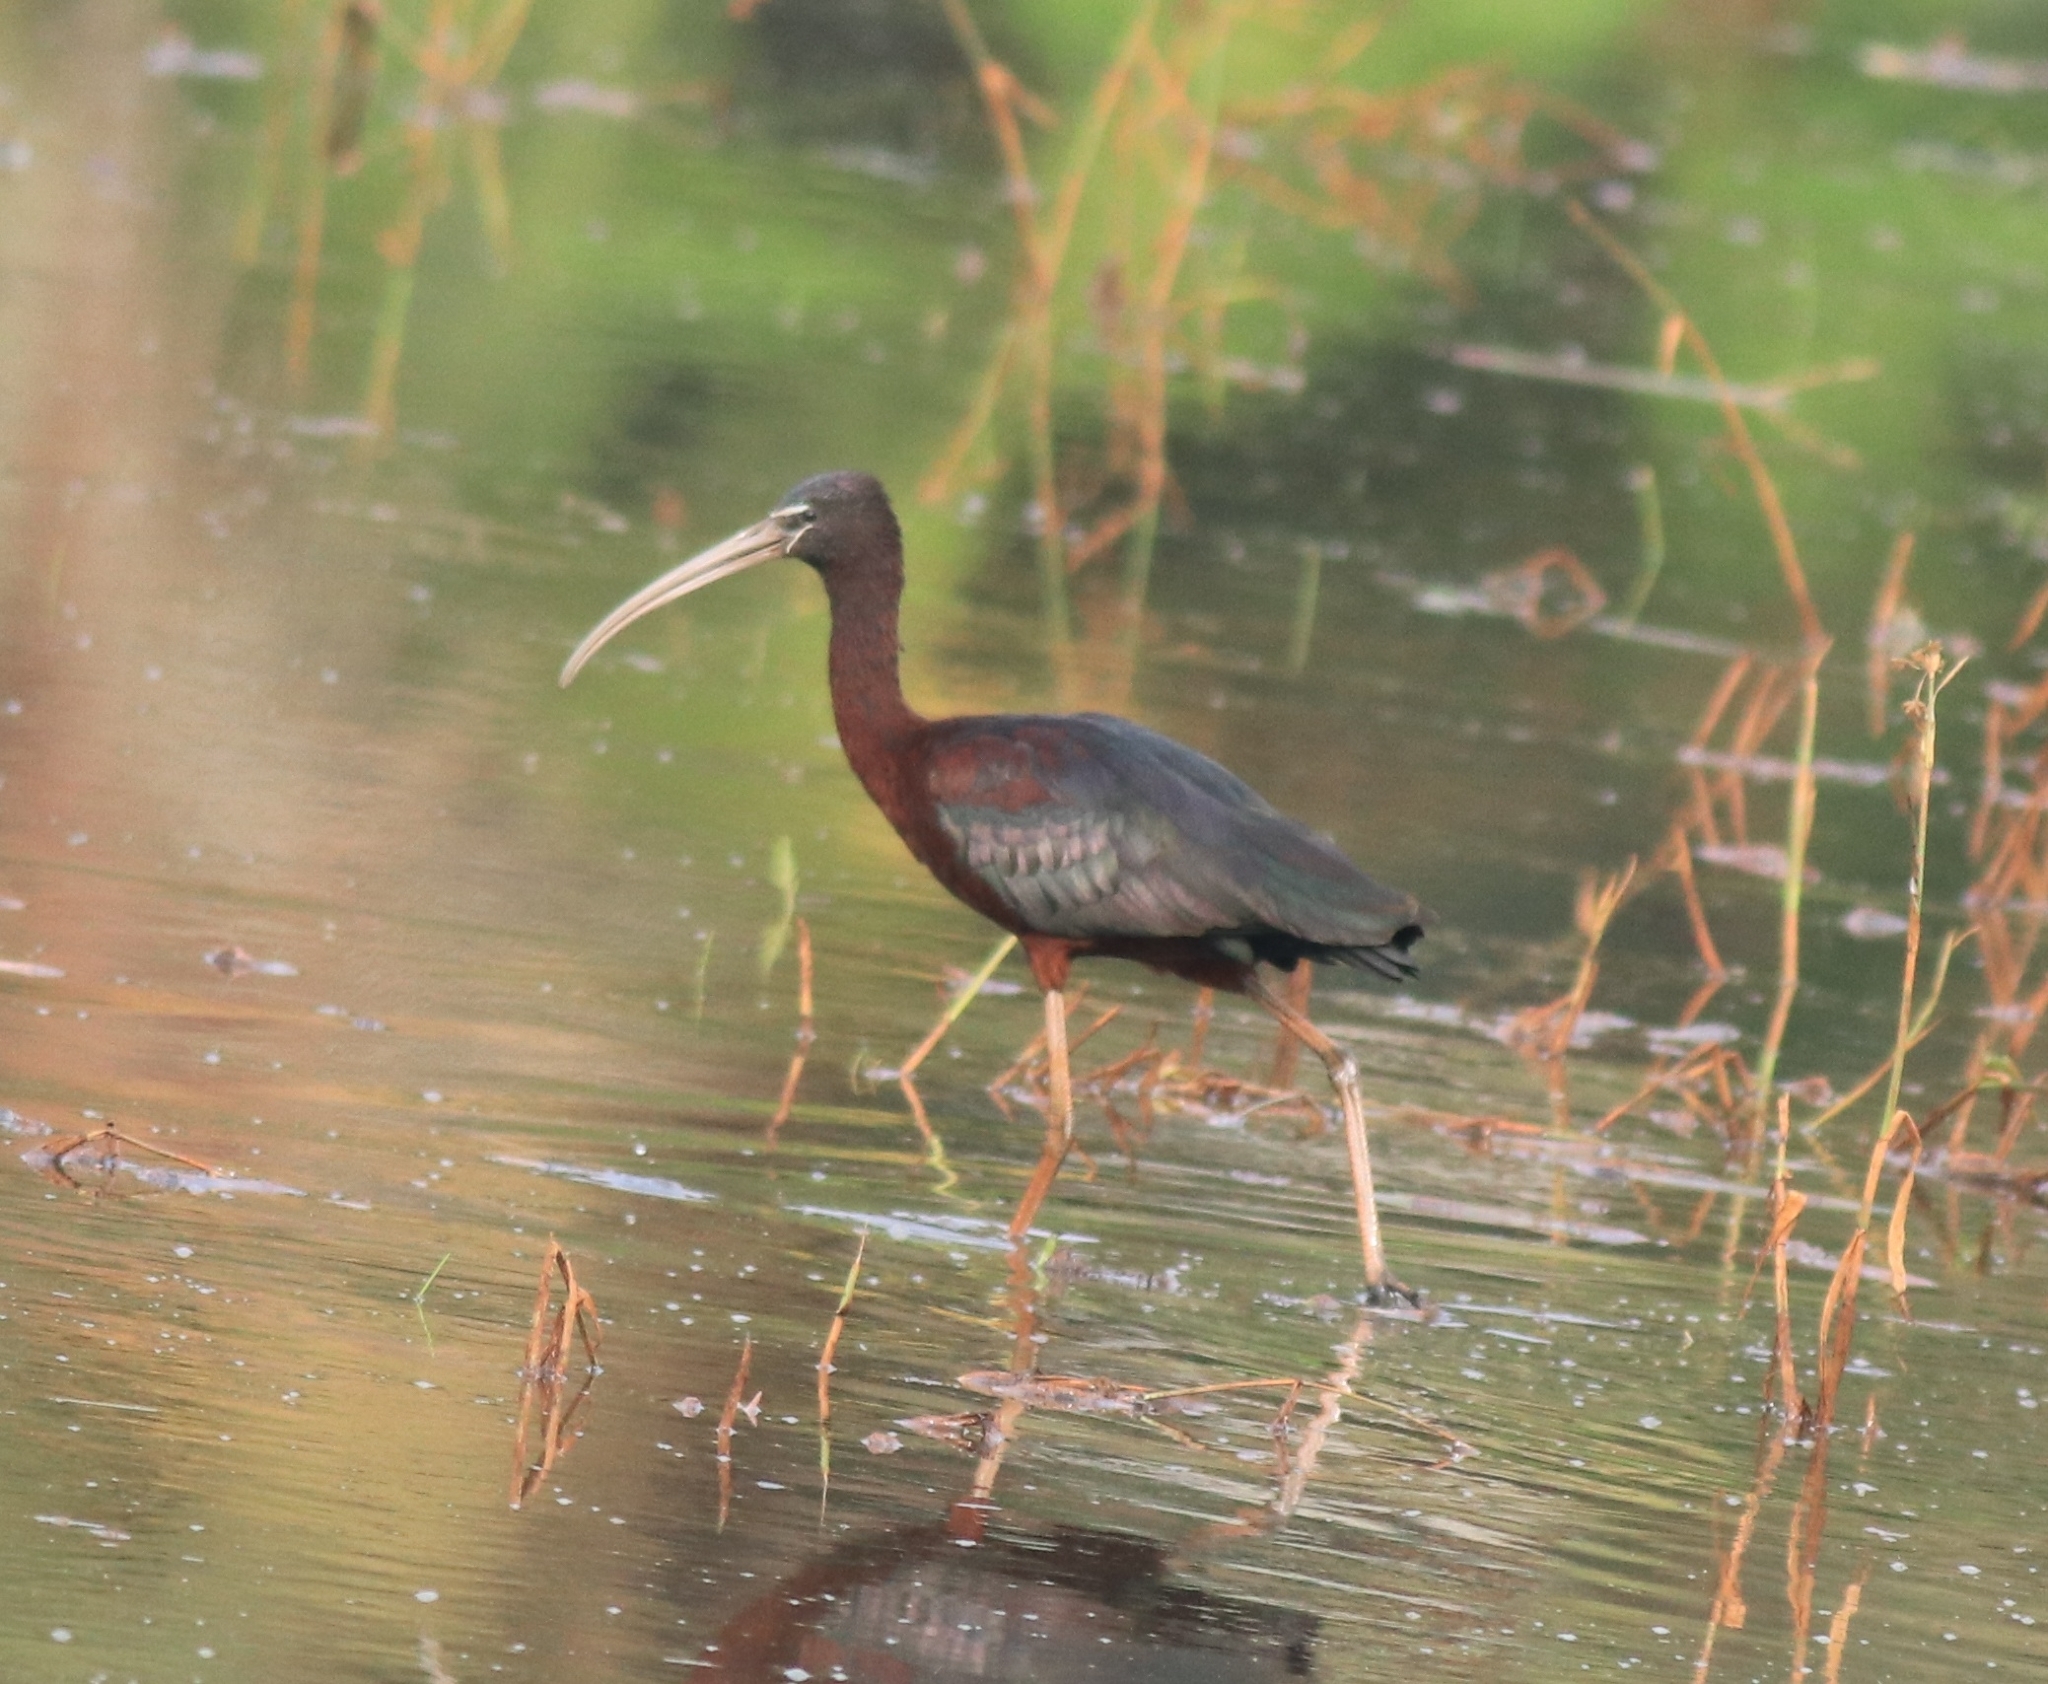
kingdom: Animalia
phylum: Chordata
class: Aves
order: Pelecaniformes
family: Threskiornithidae
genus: Plegadis
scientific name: Plegadis falcinellus
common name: Glossy ibis
